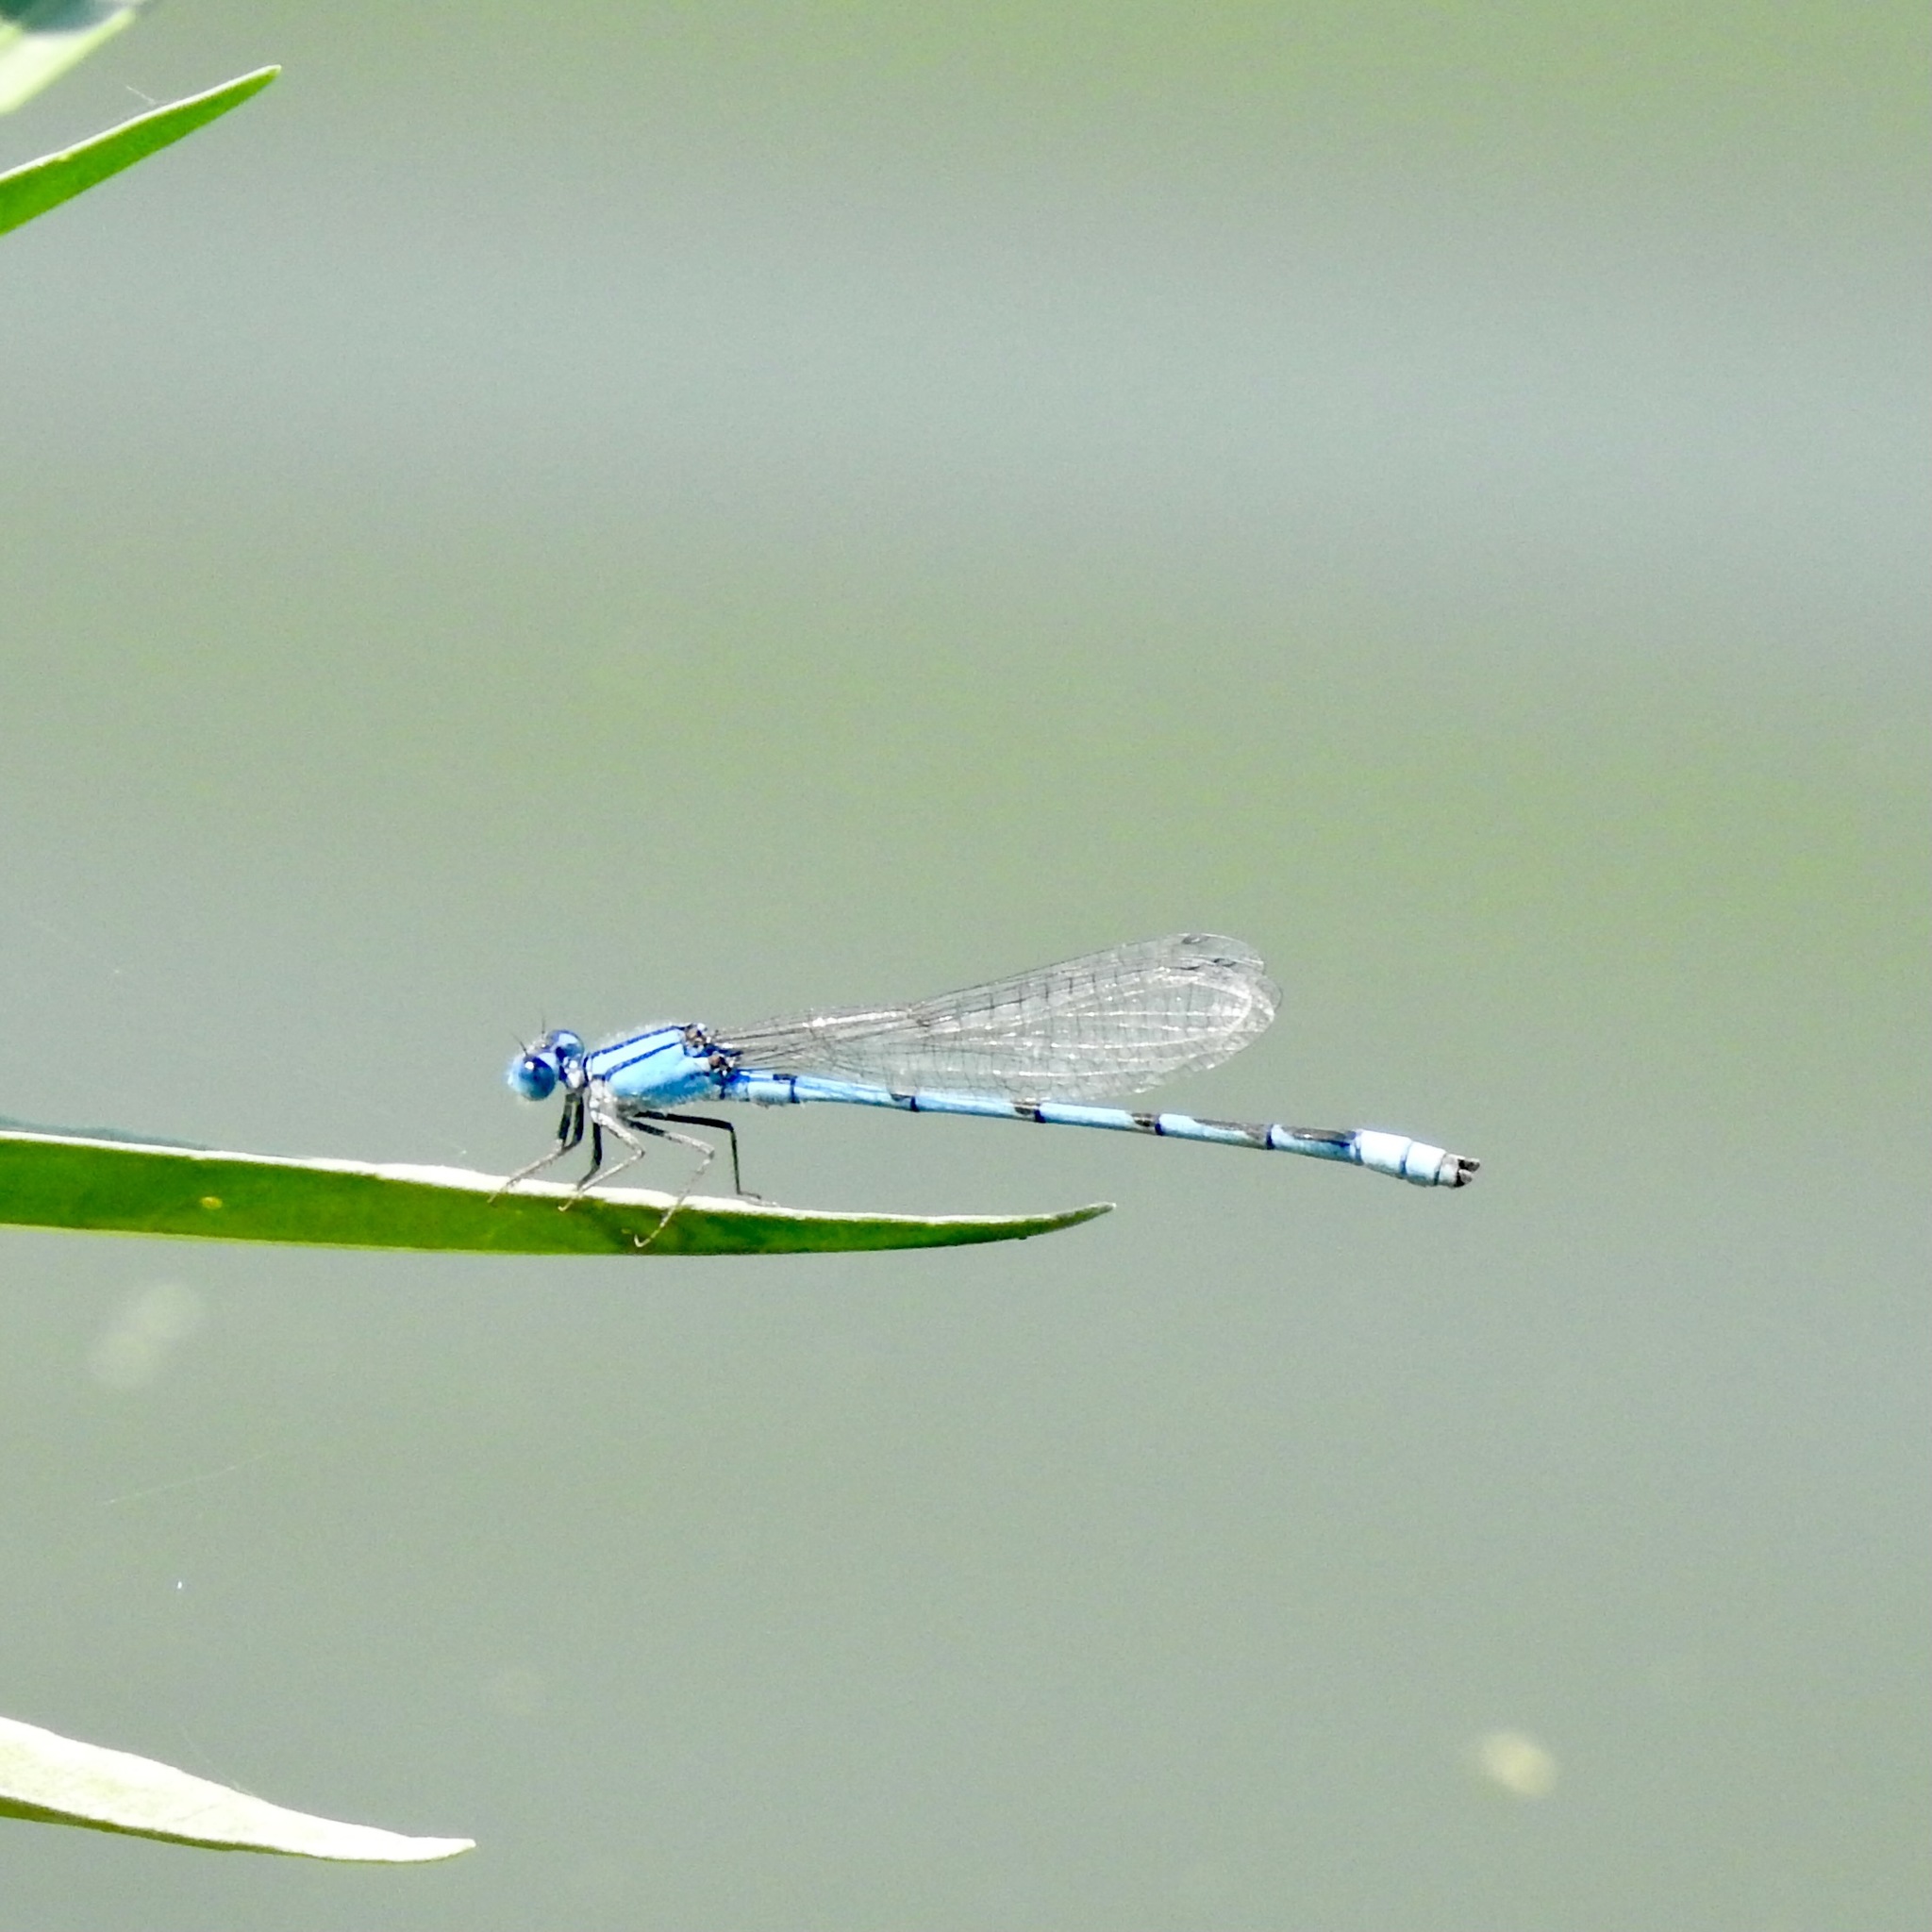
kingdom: Animalia
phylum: Arthropoda
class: Insecta
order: Odonata
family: Coenagrionidae
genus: Enallagma
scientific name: Enallagma civile
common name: Damselfly
